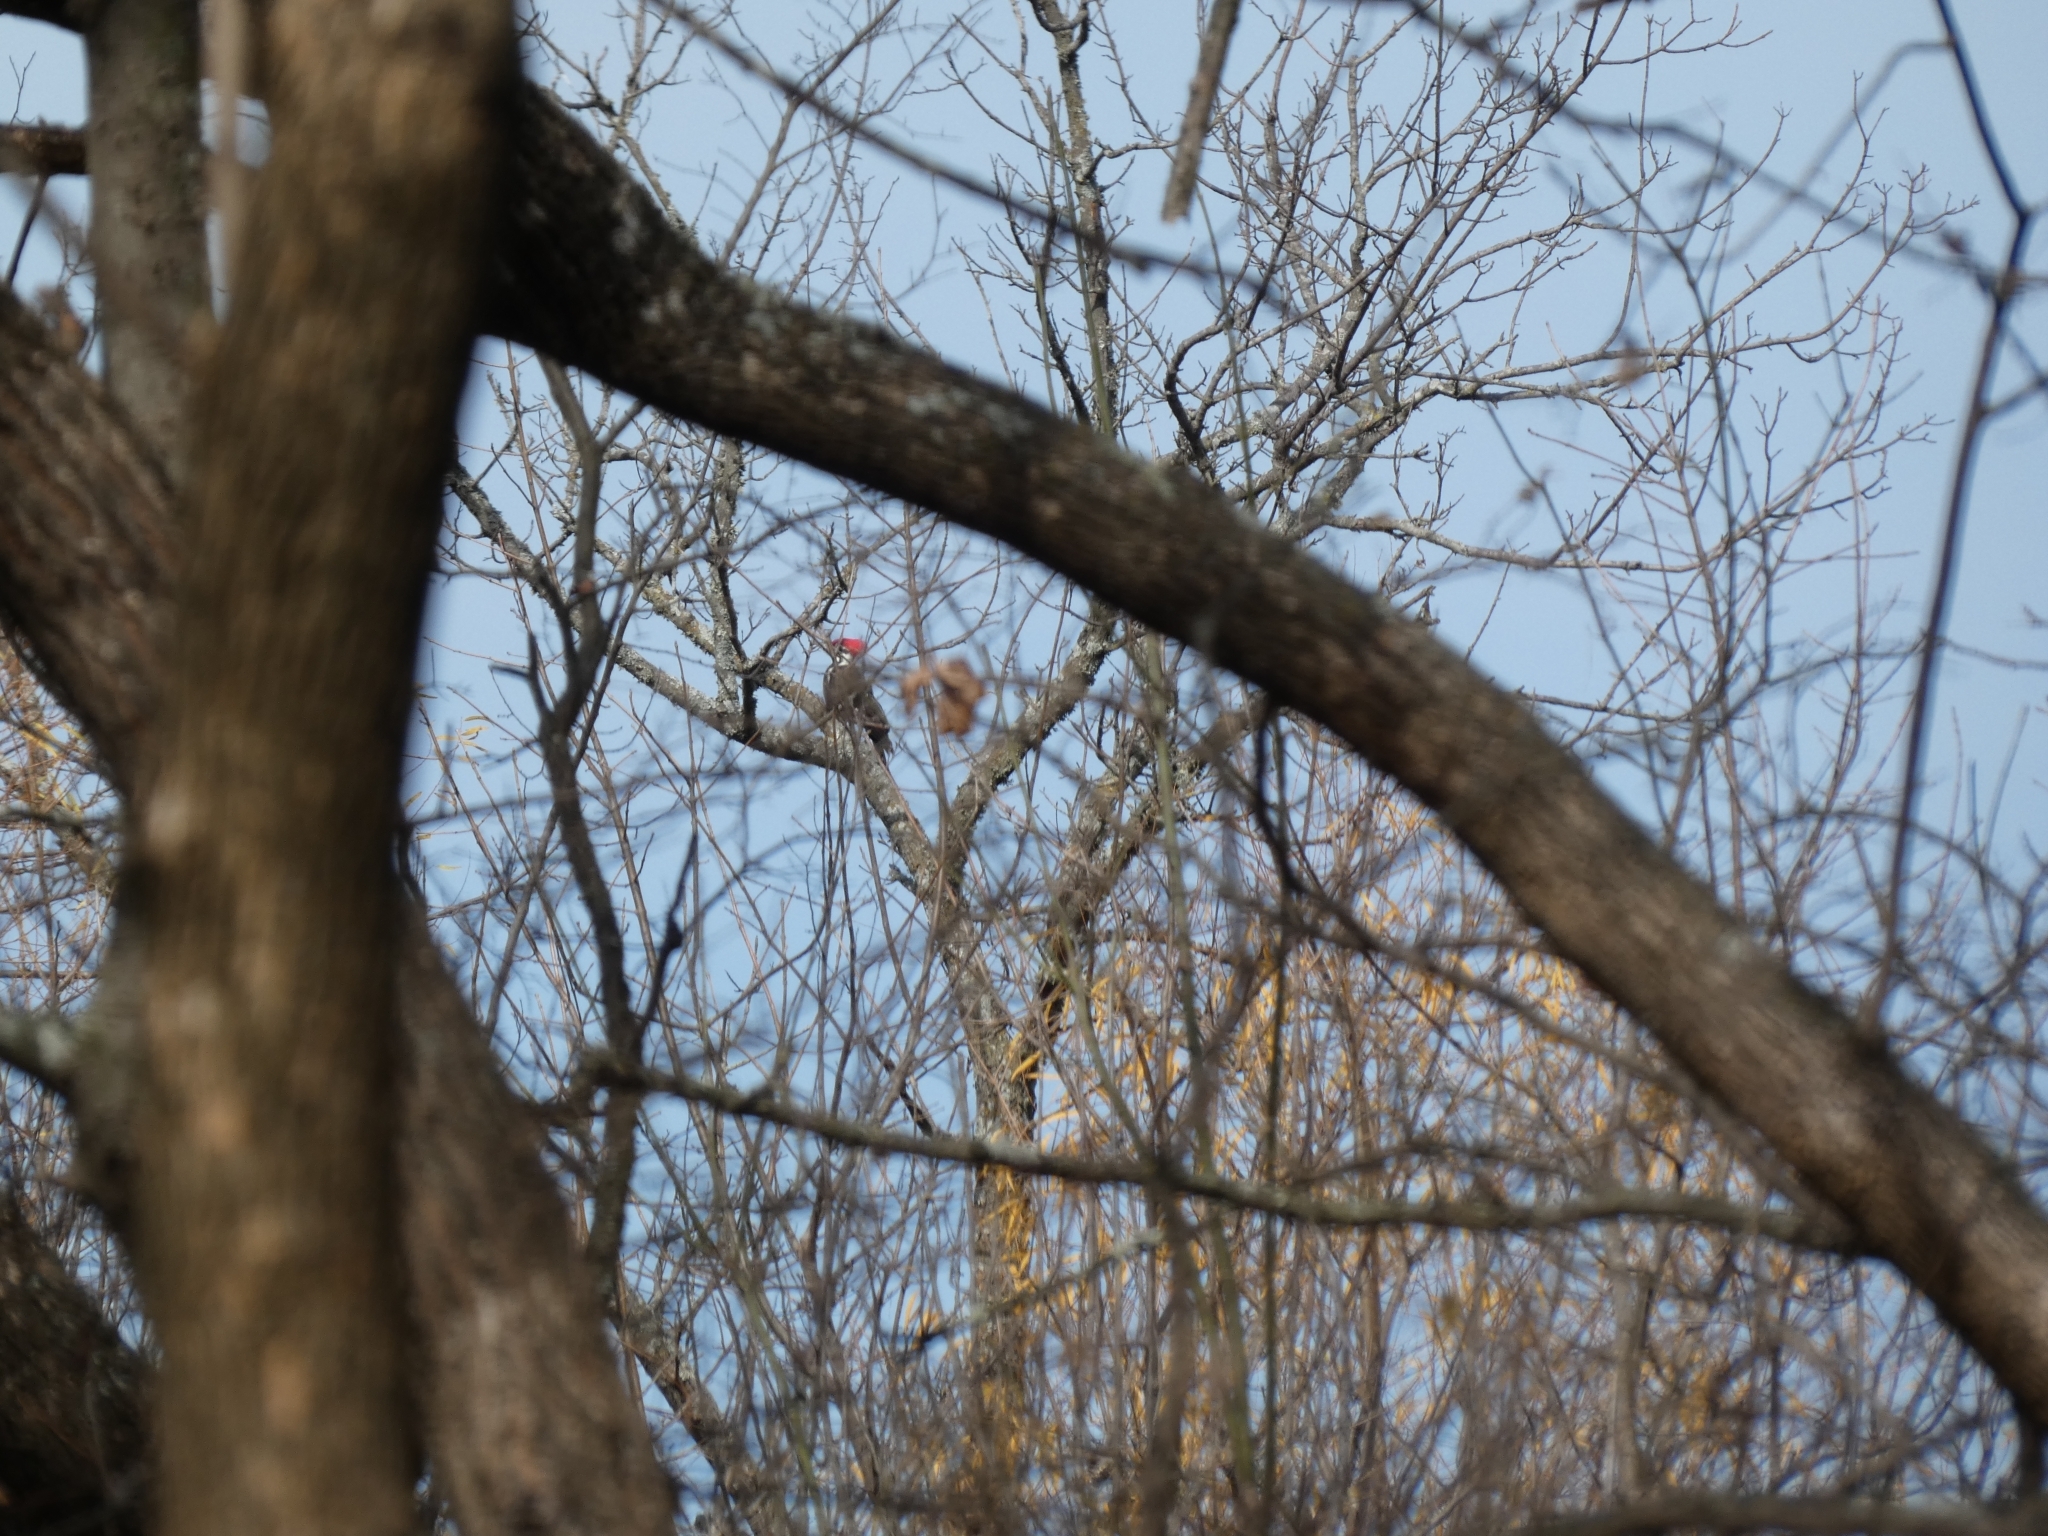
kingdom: Animalia
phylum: Chordata
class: Aves
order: Piciformes
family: Picidae
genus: Dryocopus
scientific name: Dryocopus pileatus
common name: Pileated woodpecker
